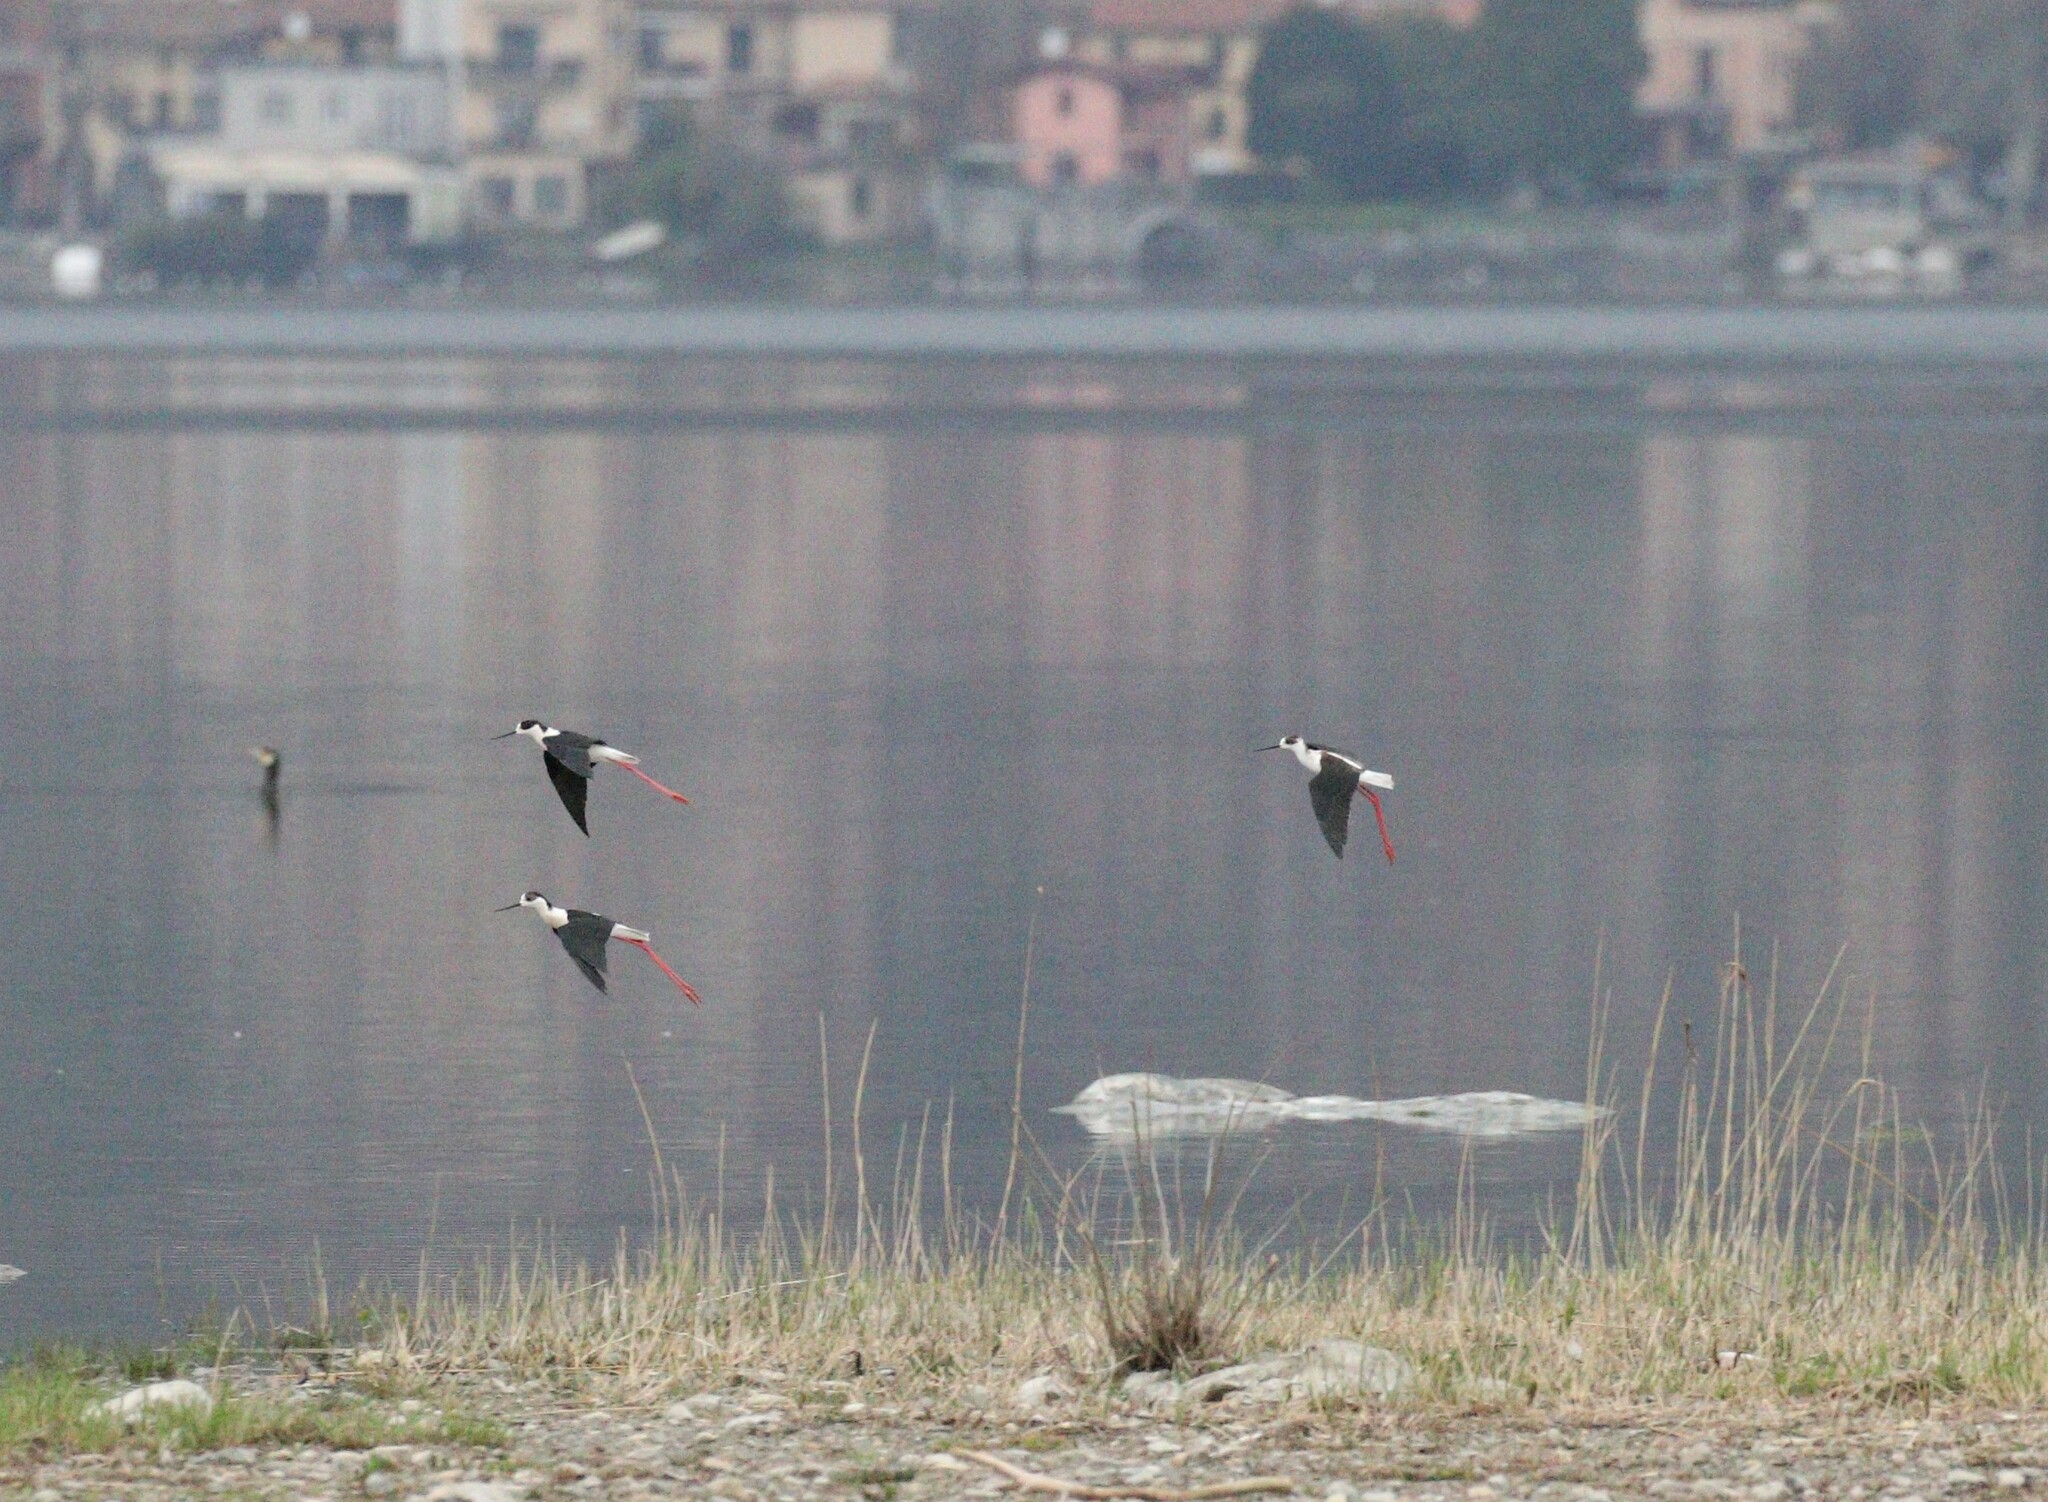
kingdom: Animalia
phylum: Chordata
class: Aves
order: Charadriiformes
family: Recurvirostridae
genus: Himantopus
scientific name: Himantopus himantopus
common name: Black-winged stilt
